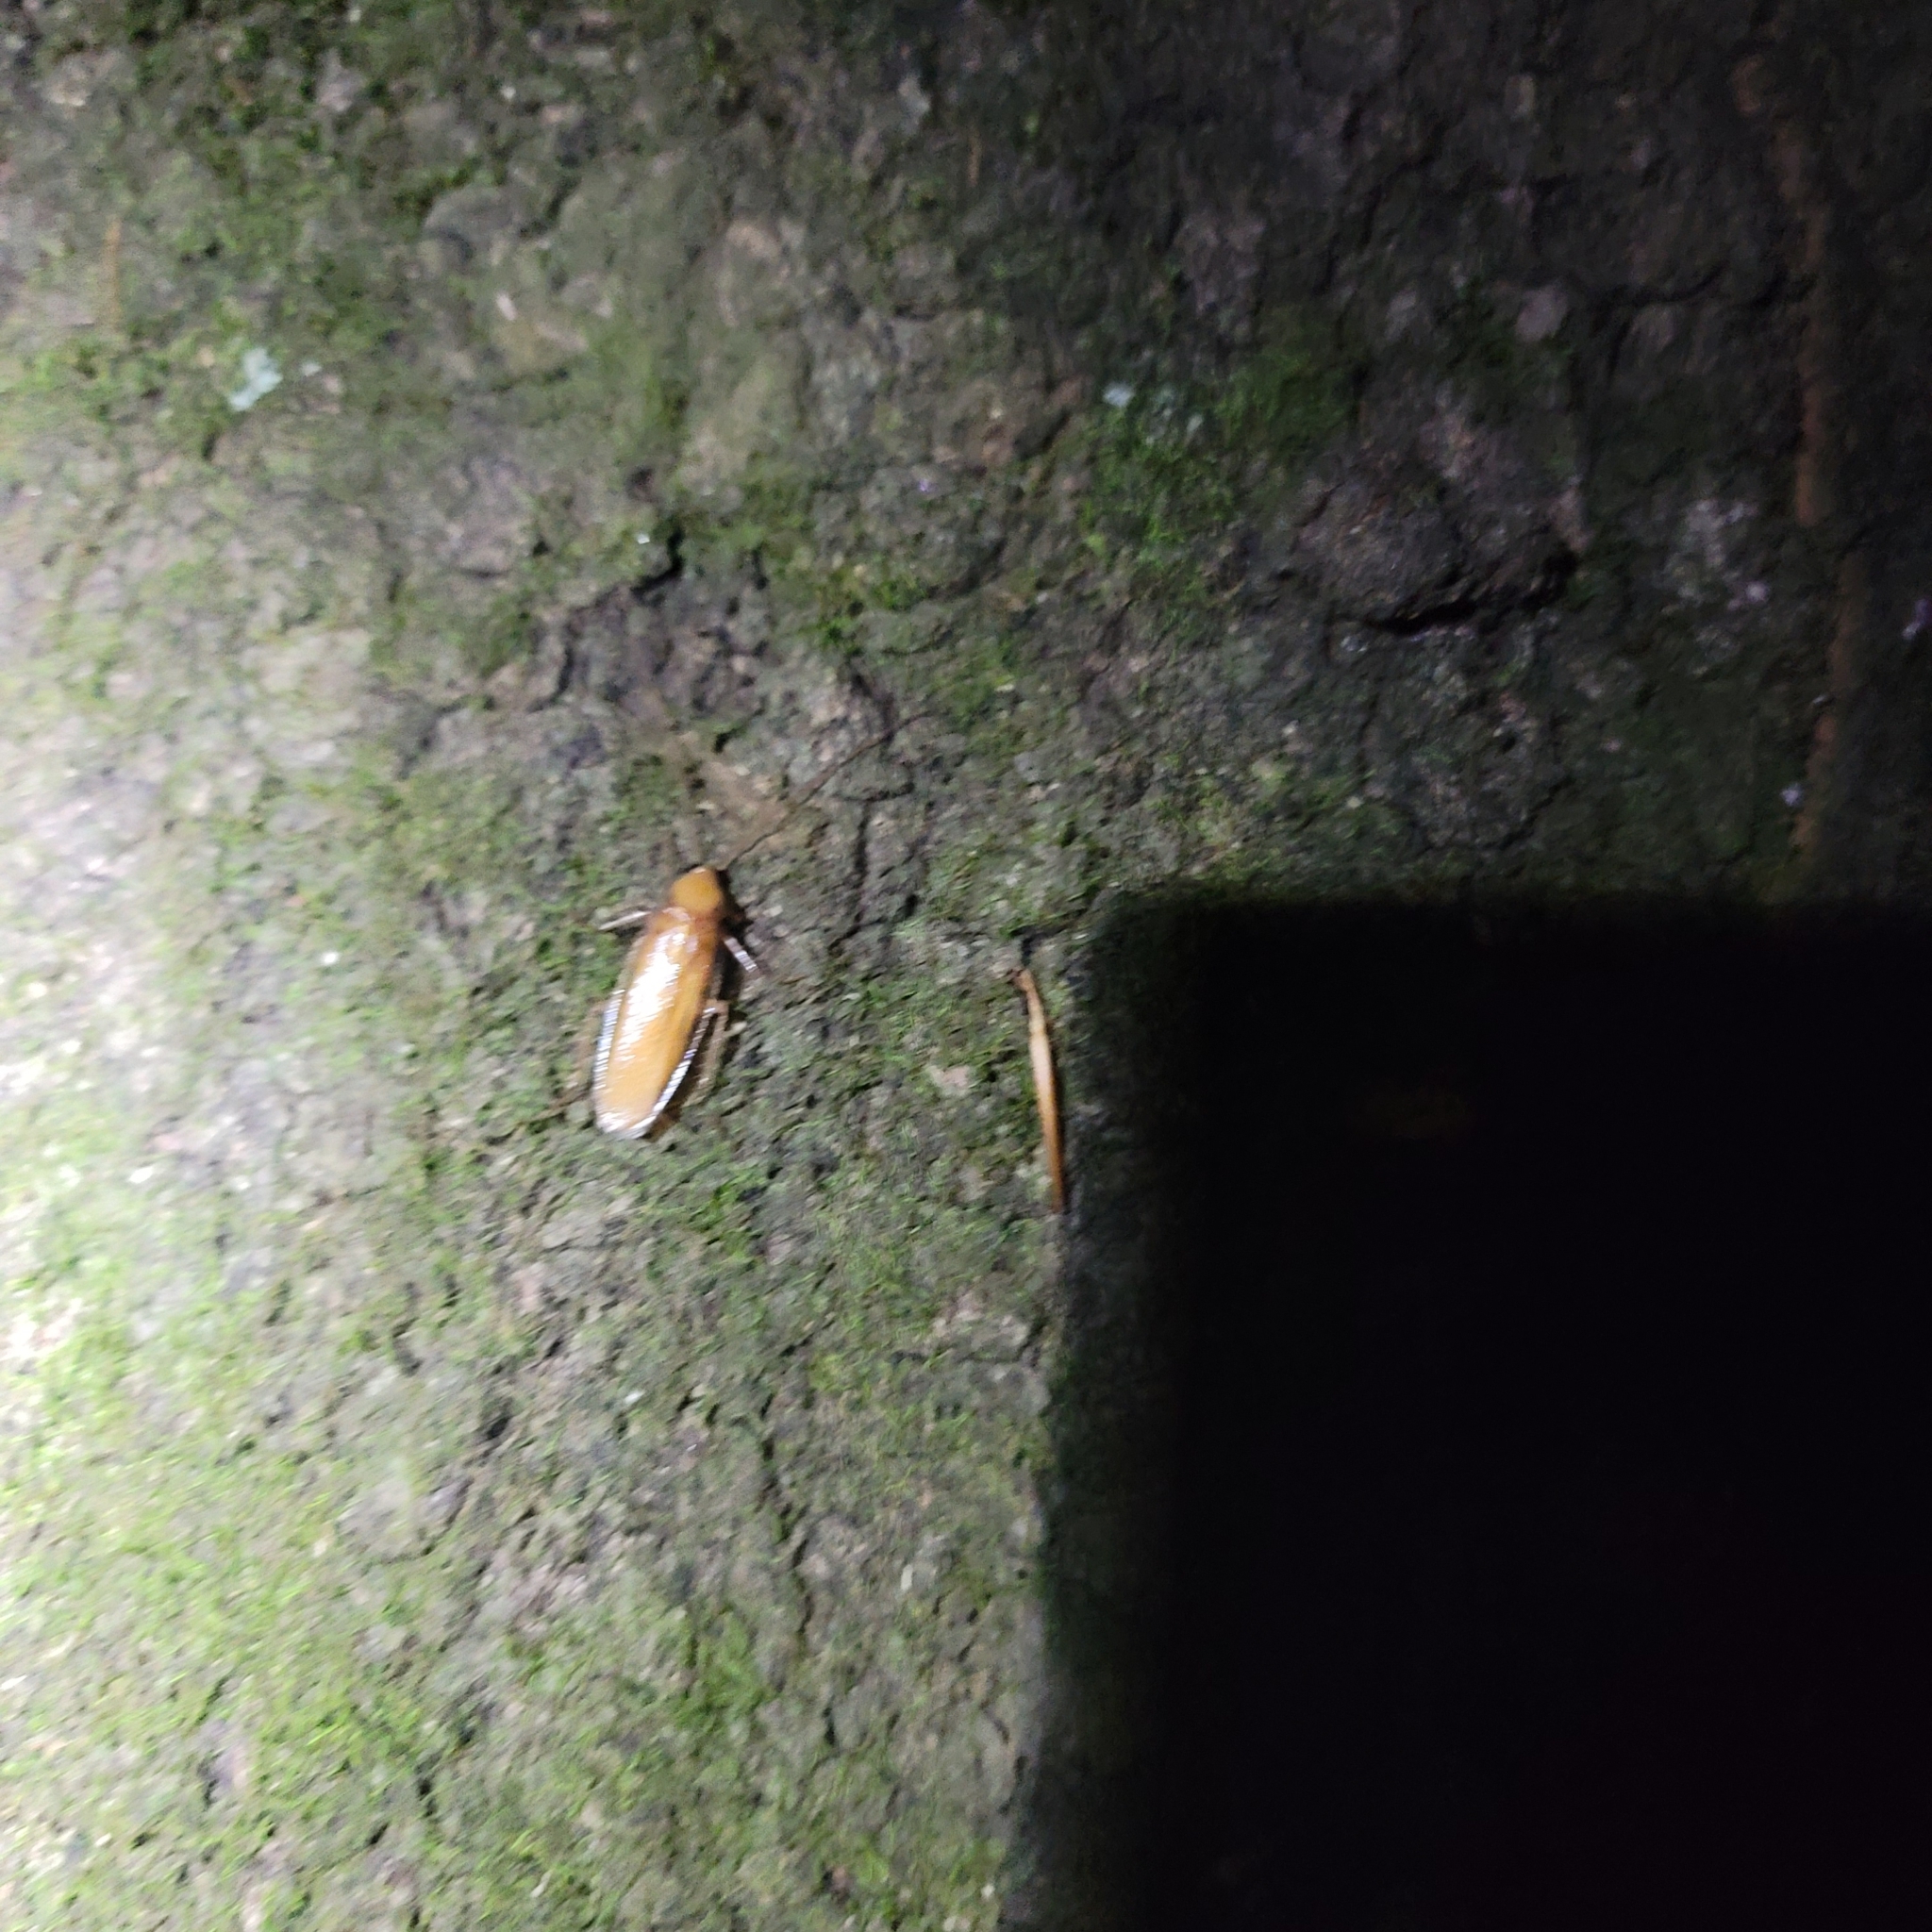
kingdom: Animalia
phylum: Arthropoda
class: Insecta
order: Blattodea
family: Ectobiidae
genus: Parcoblatta
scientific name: Parcoblatta caudelli
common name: Caudell's wood cockroach
